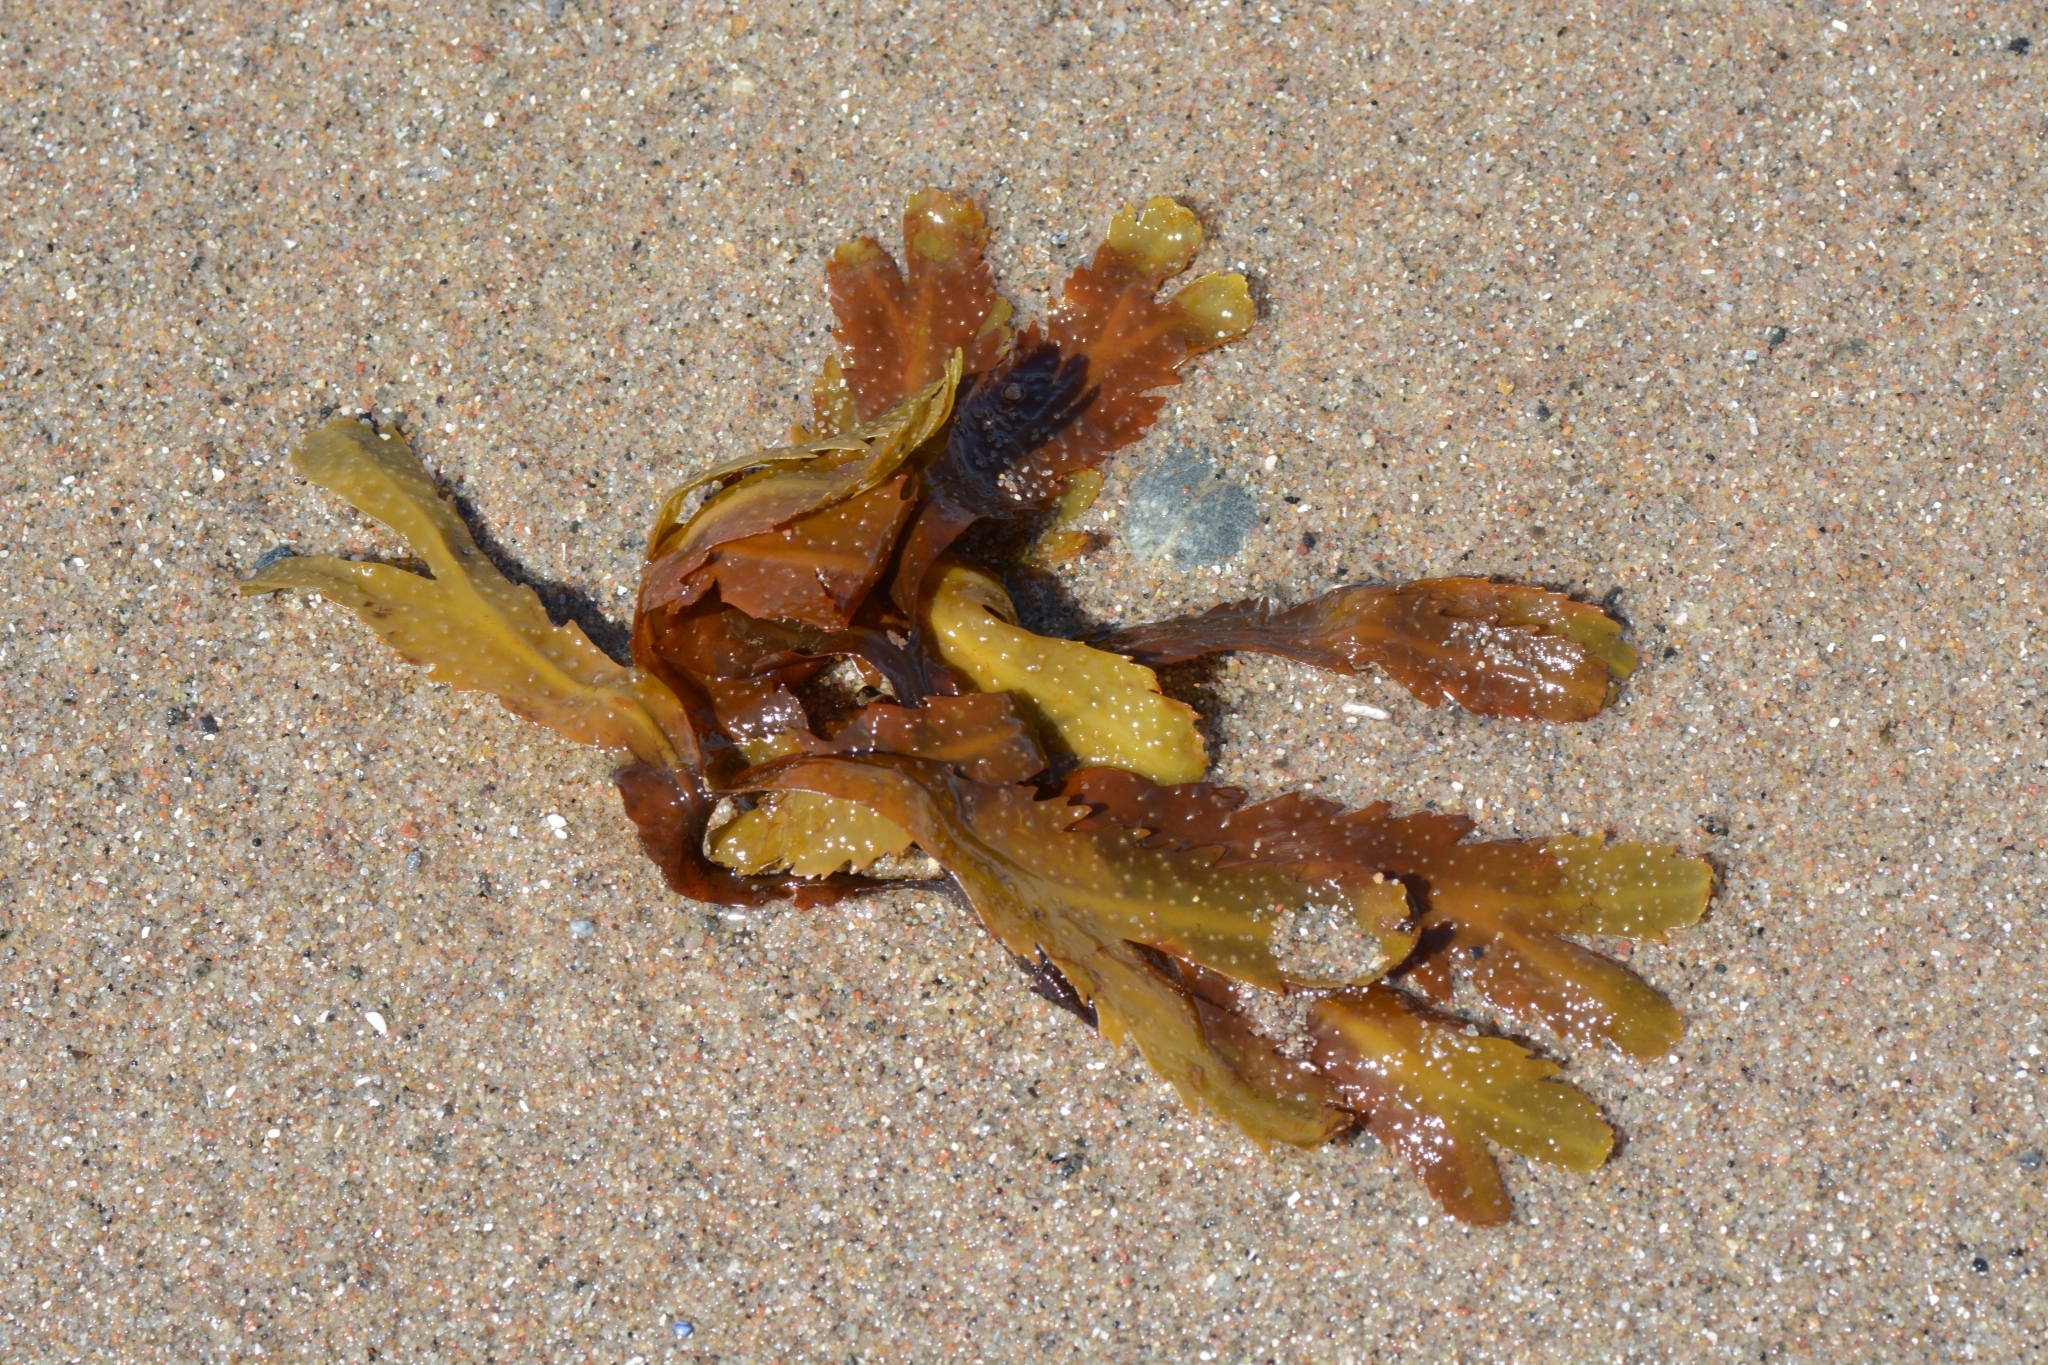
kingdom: Chromista
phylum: Ochrophyta
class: Phaeophyceae
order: Fucales
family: Fucaceae
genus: Fucus
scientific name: Fucus serratus
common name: Toothed wrack
